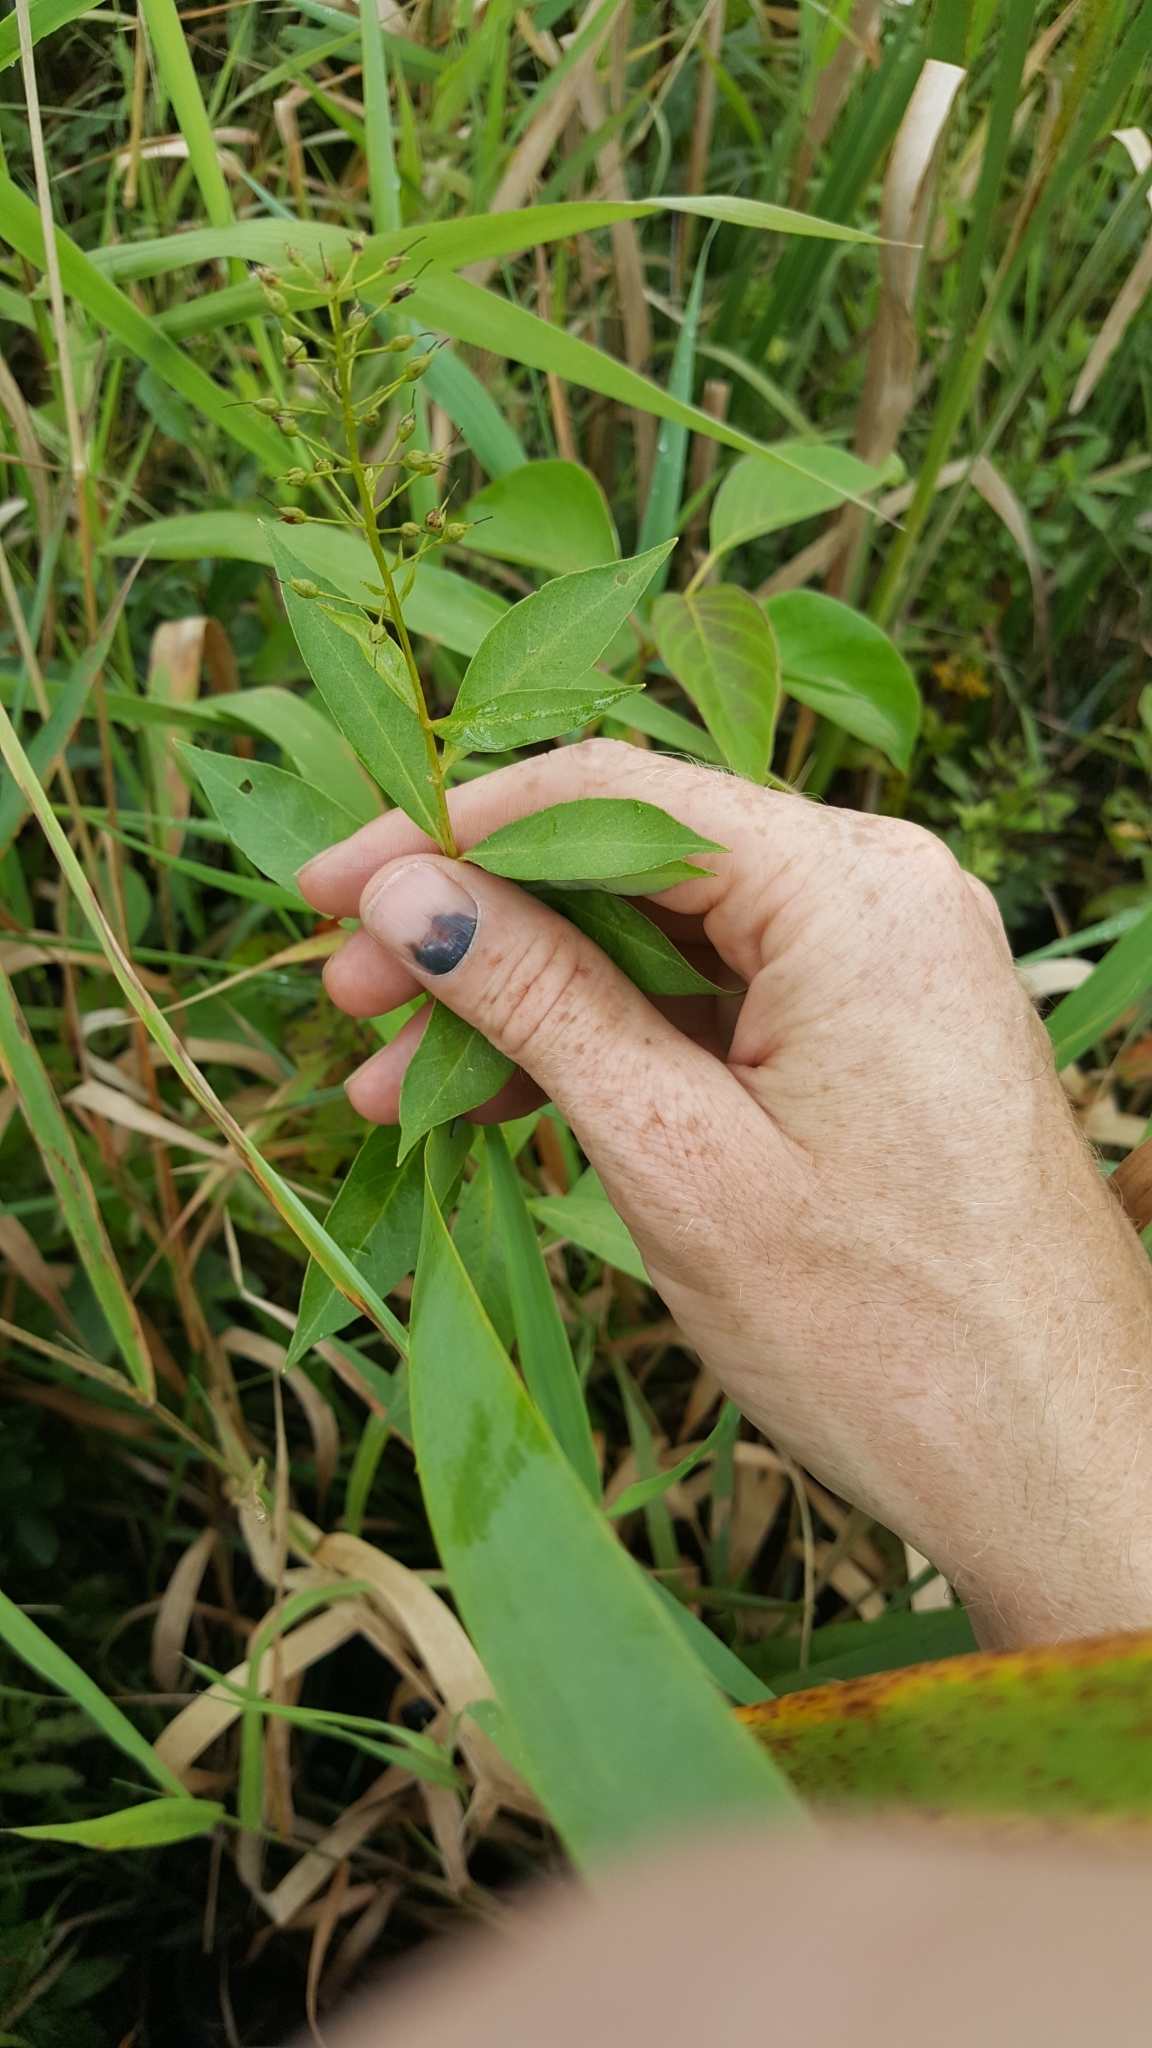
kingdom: Plantae
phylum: Tracheophyta
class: Magnoliopsida
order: Ericales
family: Primulaceae
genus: Lysimachia
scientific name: Lysimachia terrestris
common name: Lake loosestrife
